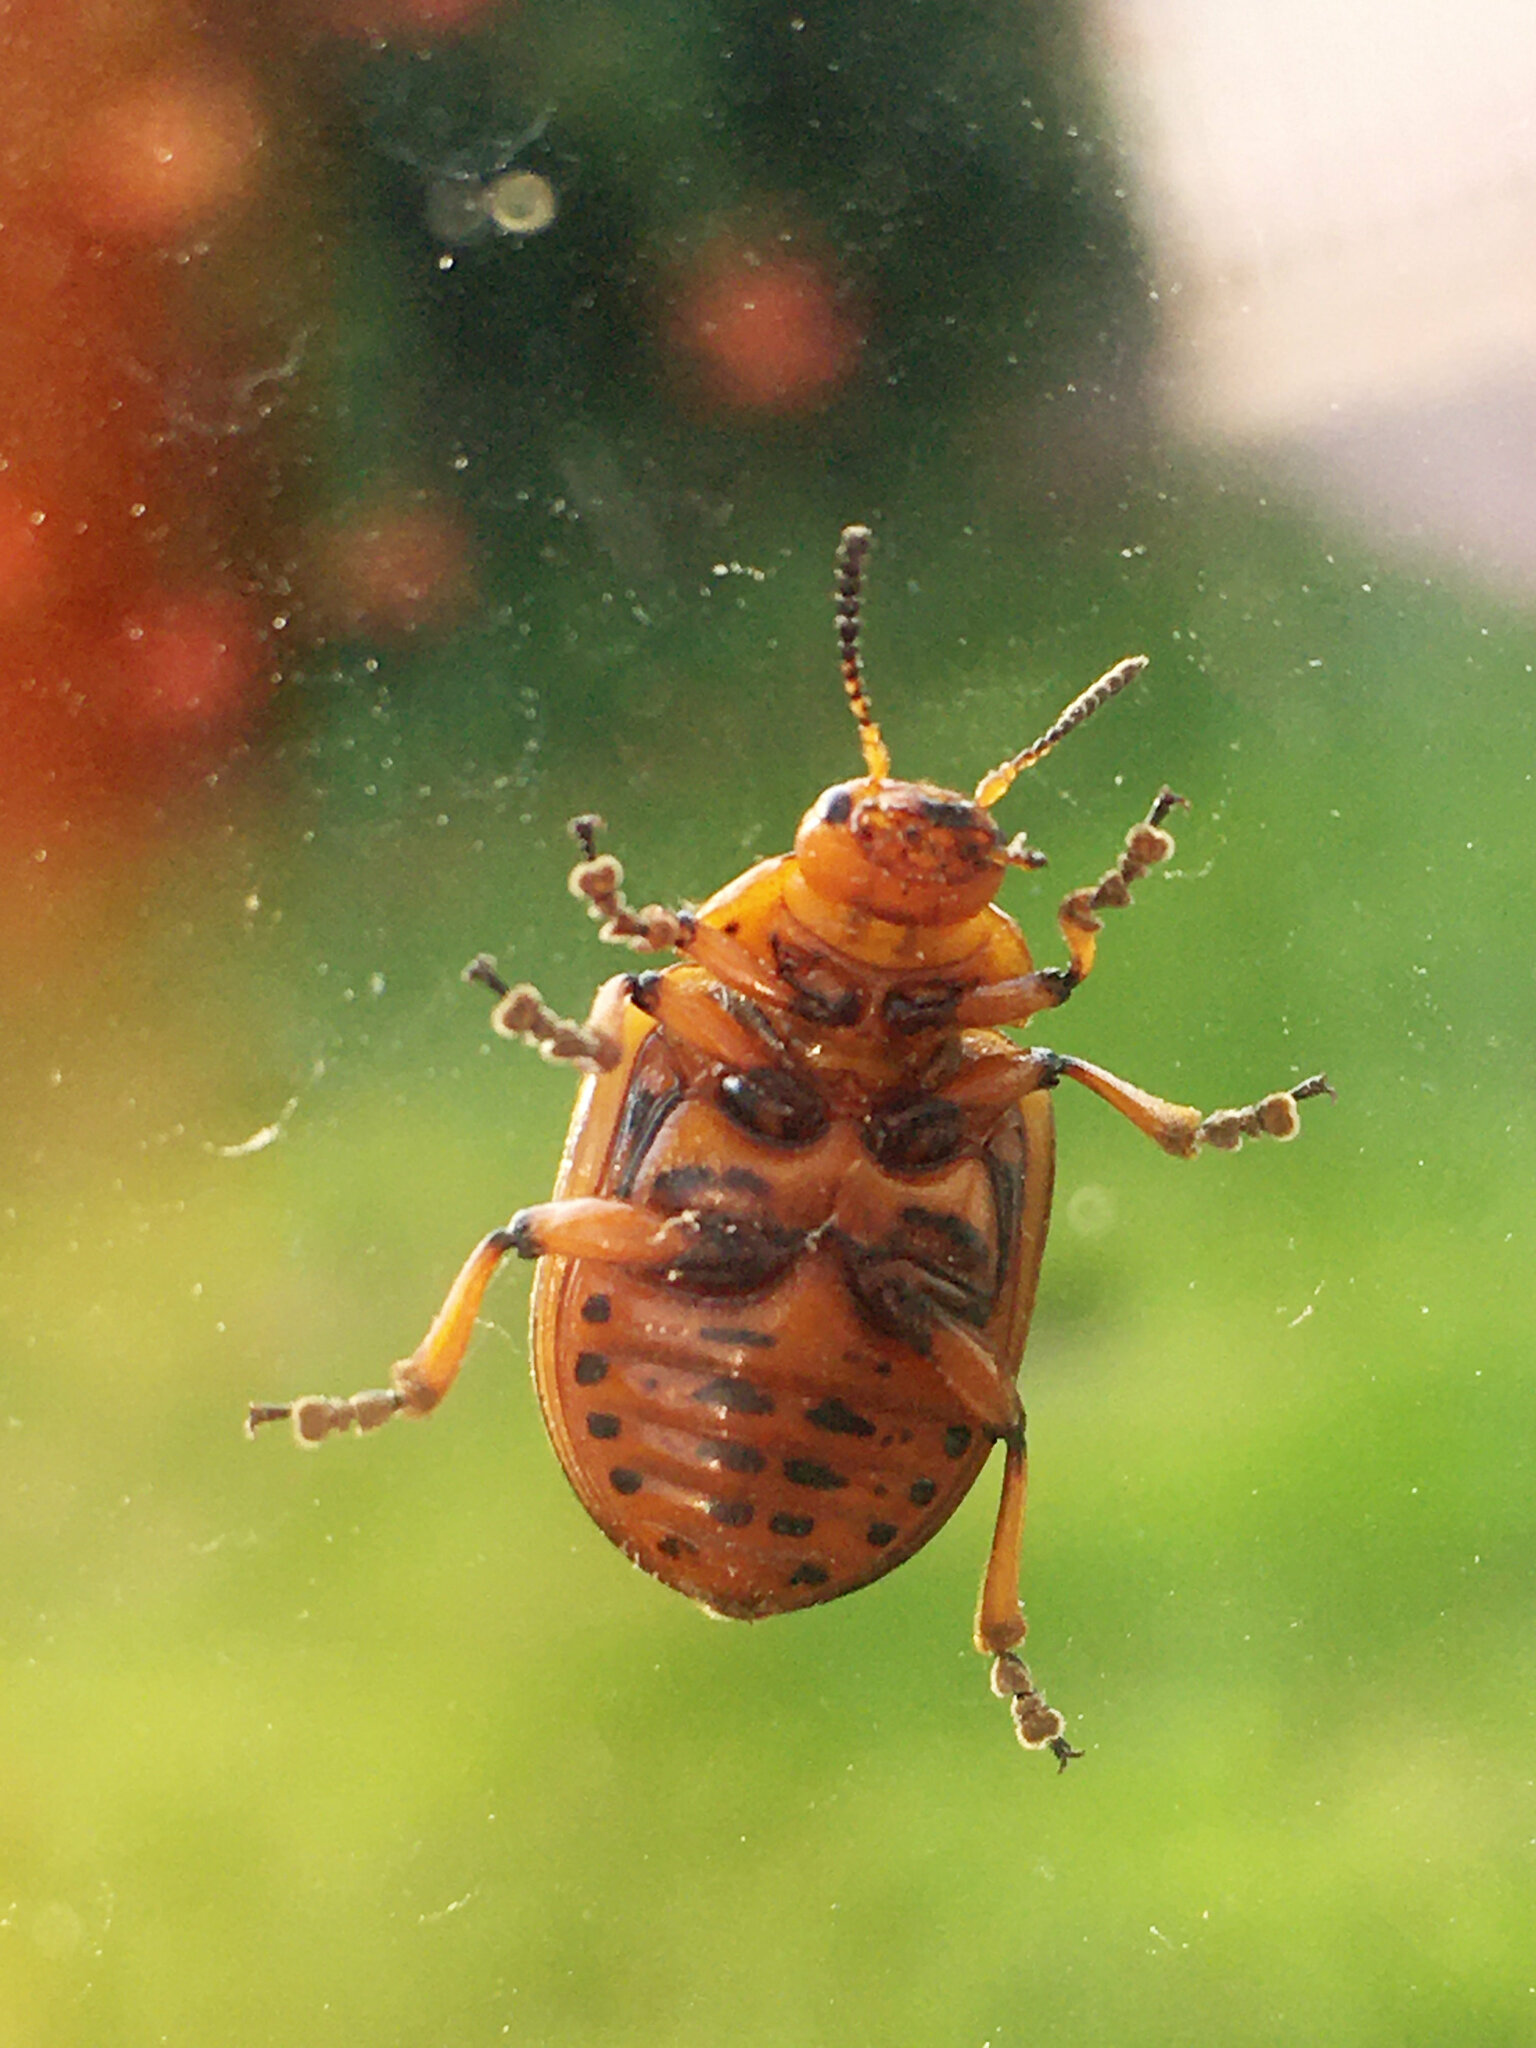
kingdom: Animalia
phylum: Arthropoda
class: Insecta
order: Coleoptera
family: Chrysomelidae
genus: Leptinotarsa
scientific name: Leptinotarsa decemlineata
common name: Colorado potato beetle
